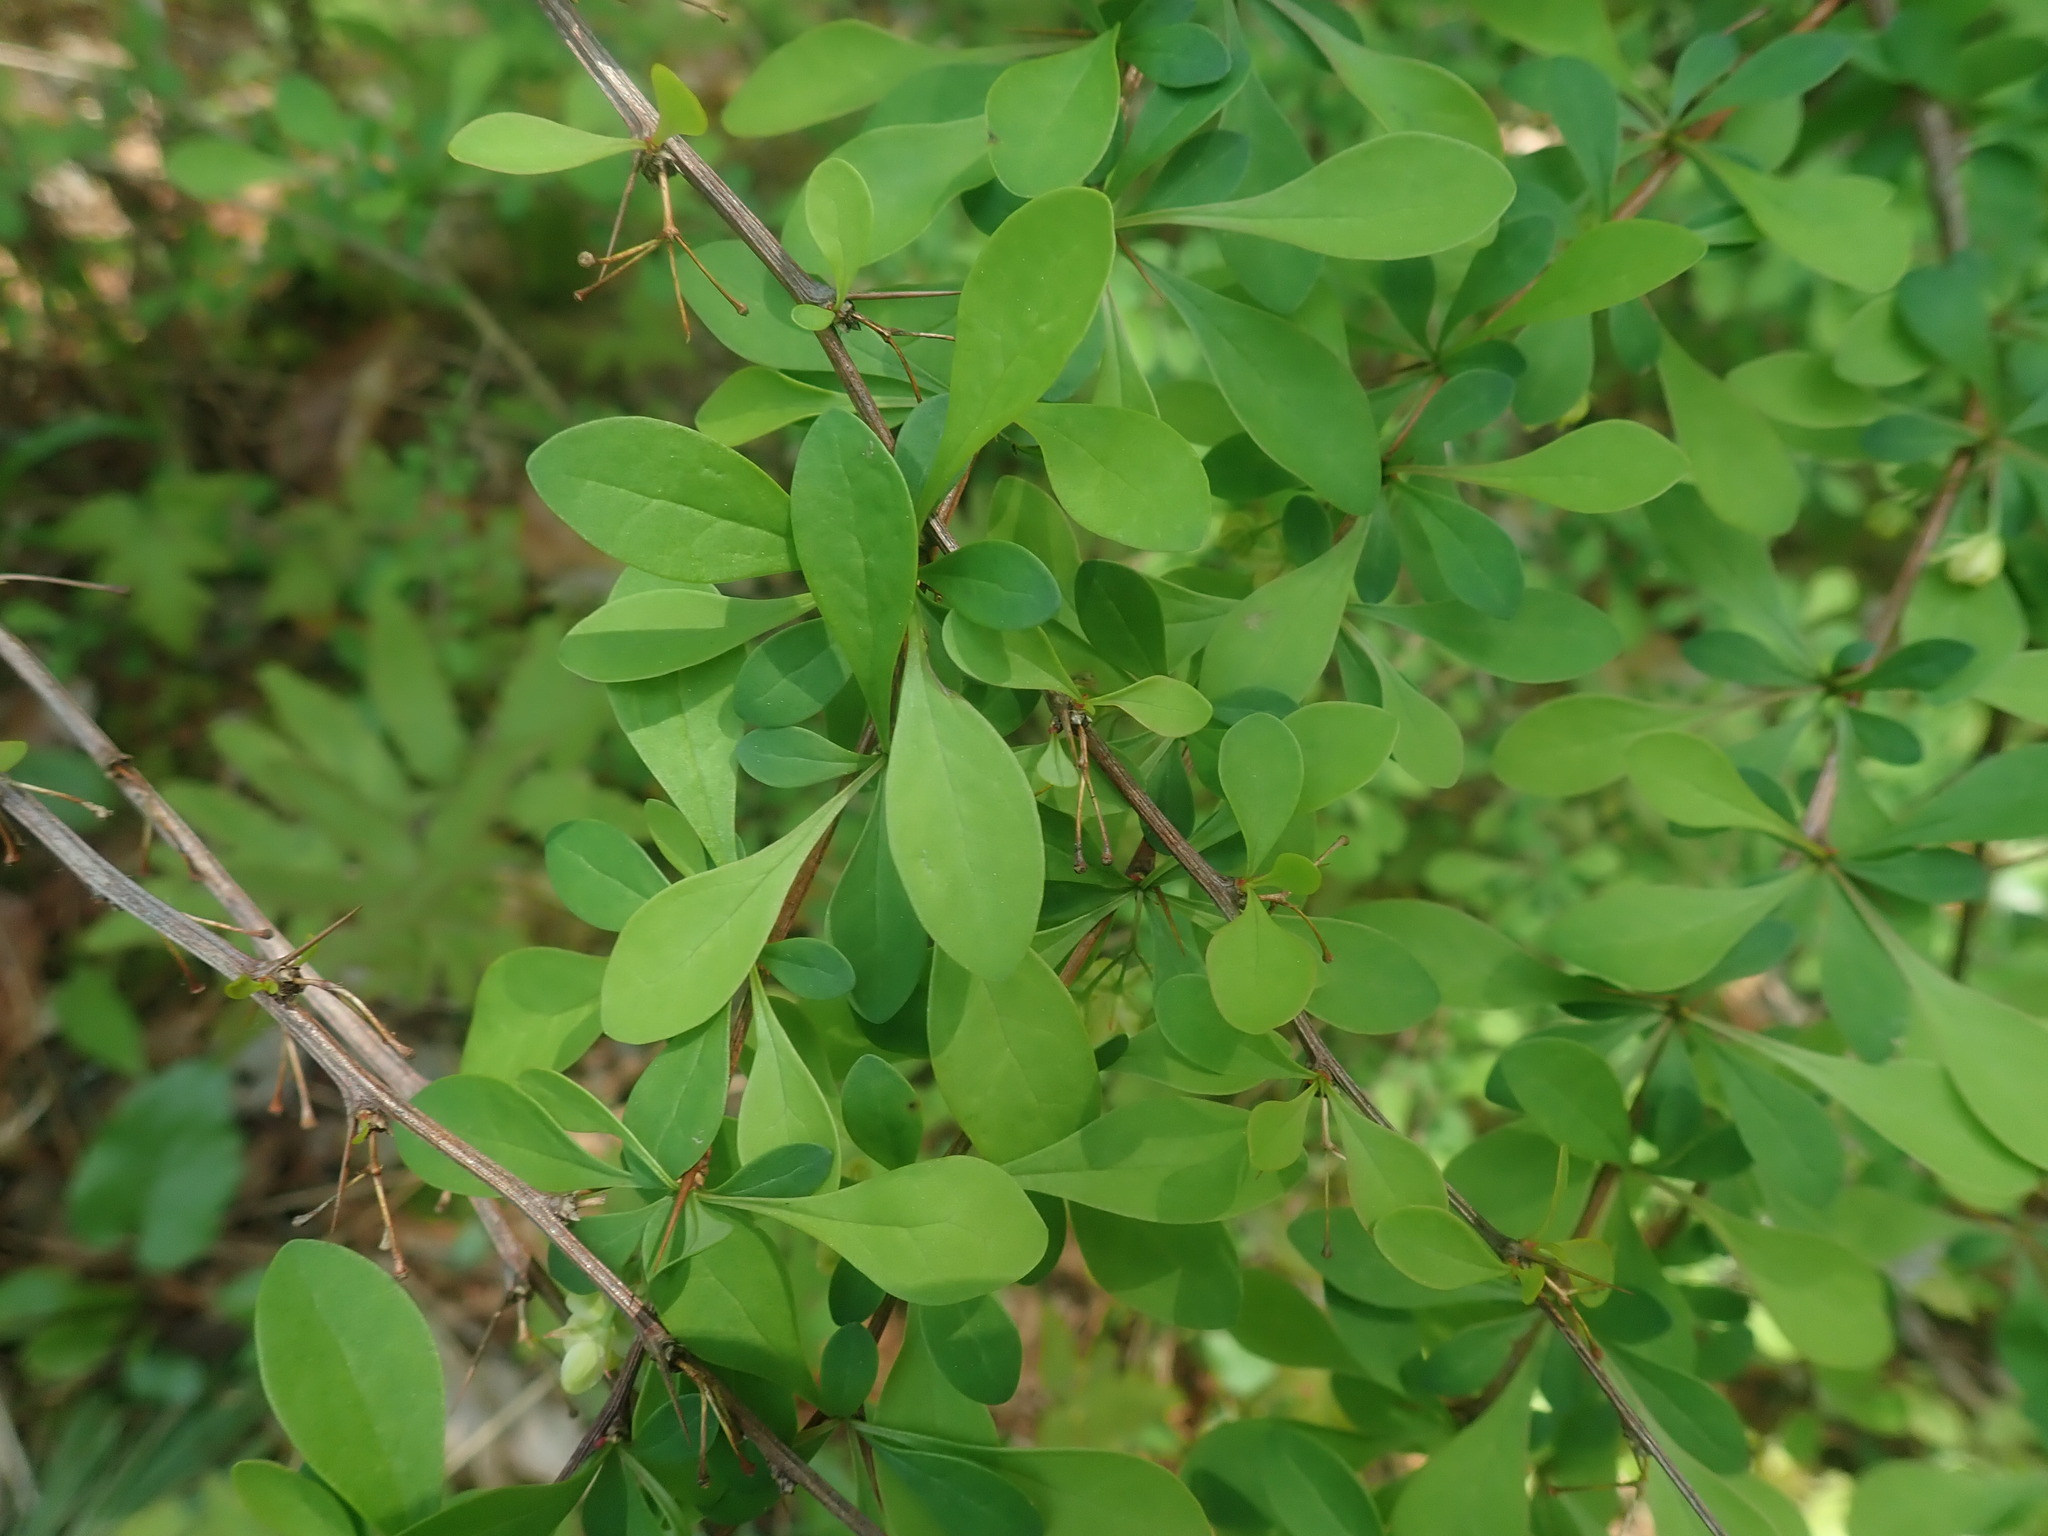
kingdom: Plantae
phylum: Tracheophyta
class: Magnoliopsida
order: Ranunculales
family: Berberidaceae
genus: Berberis
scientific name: Berberis thunbergii
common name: Japanese barberry
